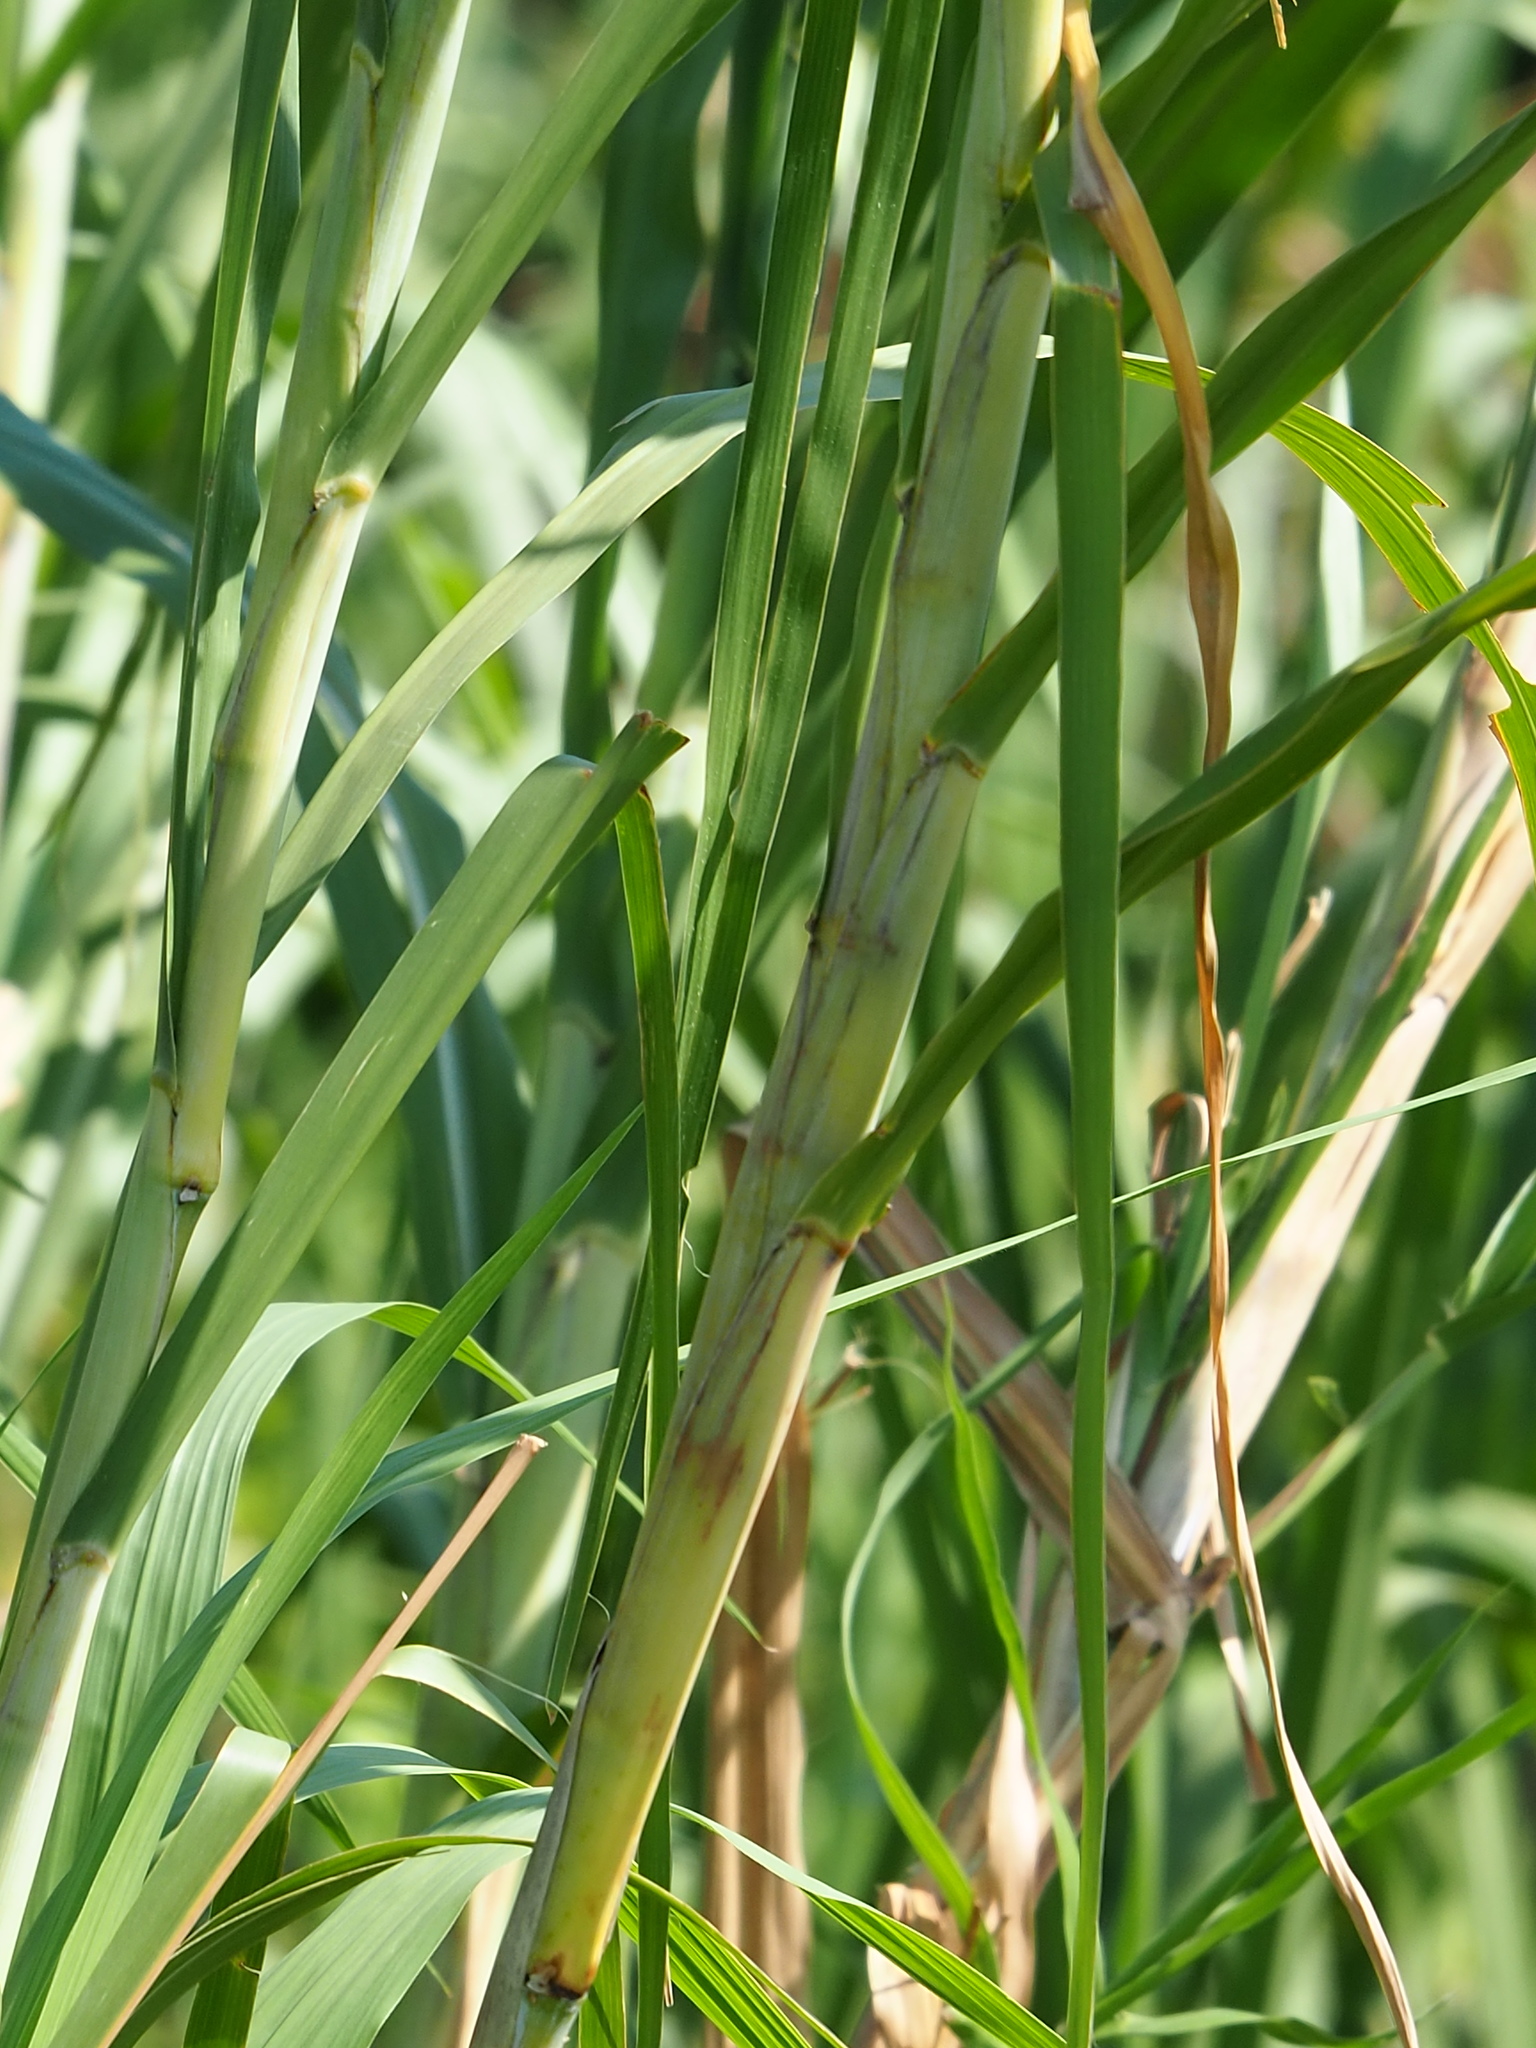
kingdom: Plantae
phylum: Tracheophyta
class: Liliopsida
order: Poales
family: Poaceae
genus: Cenchrus
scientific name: Cenchrus purpureus
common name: Elephant grass
